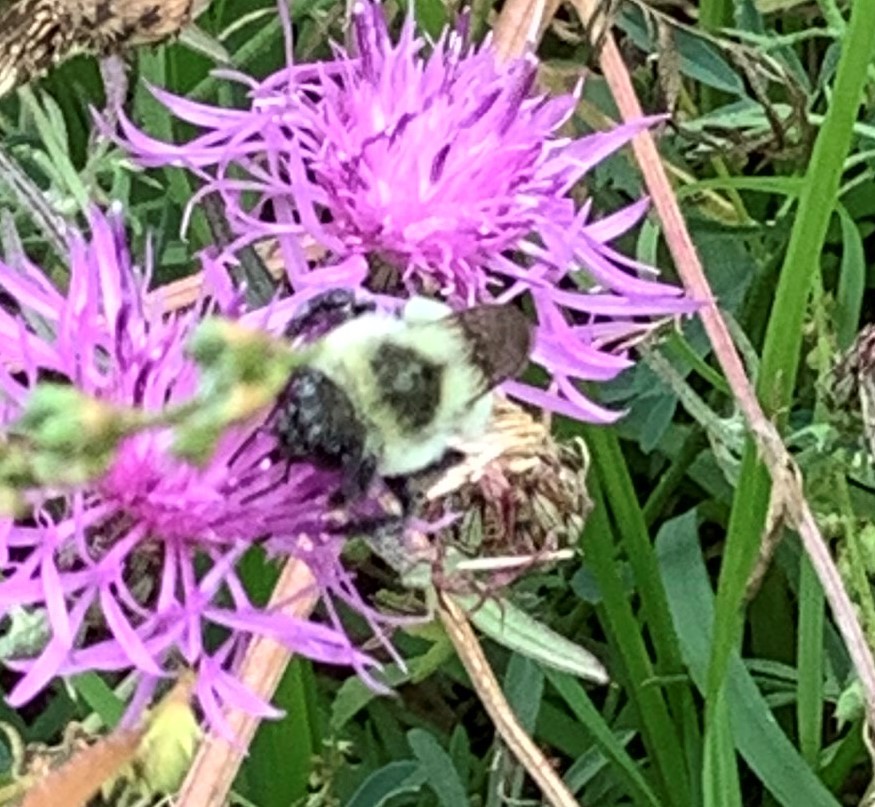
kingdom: Animalia
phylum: Arthropoda
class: Insecta
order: Hymenoptera
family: Apidae
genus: Bombus
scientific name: Bombus impatiens
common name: Common eastern bumble bee
